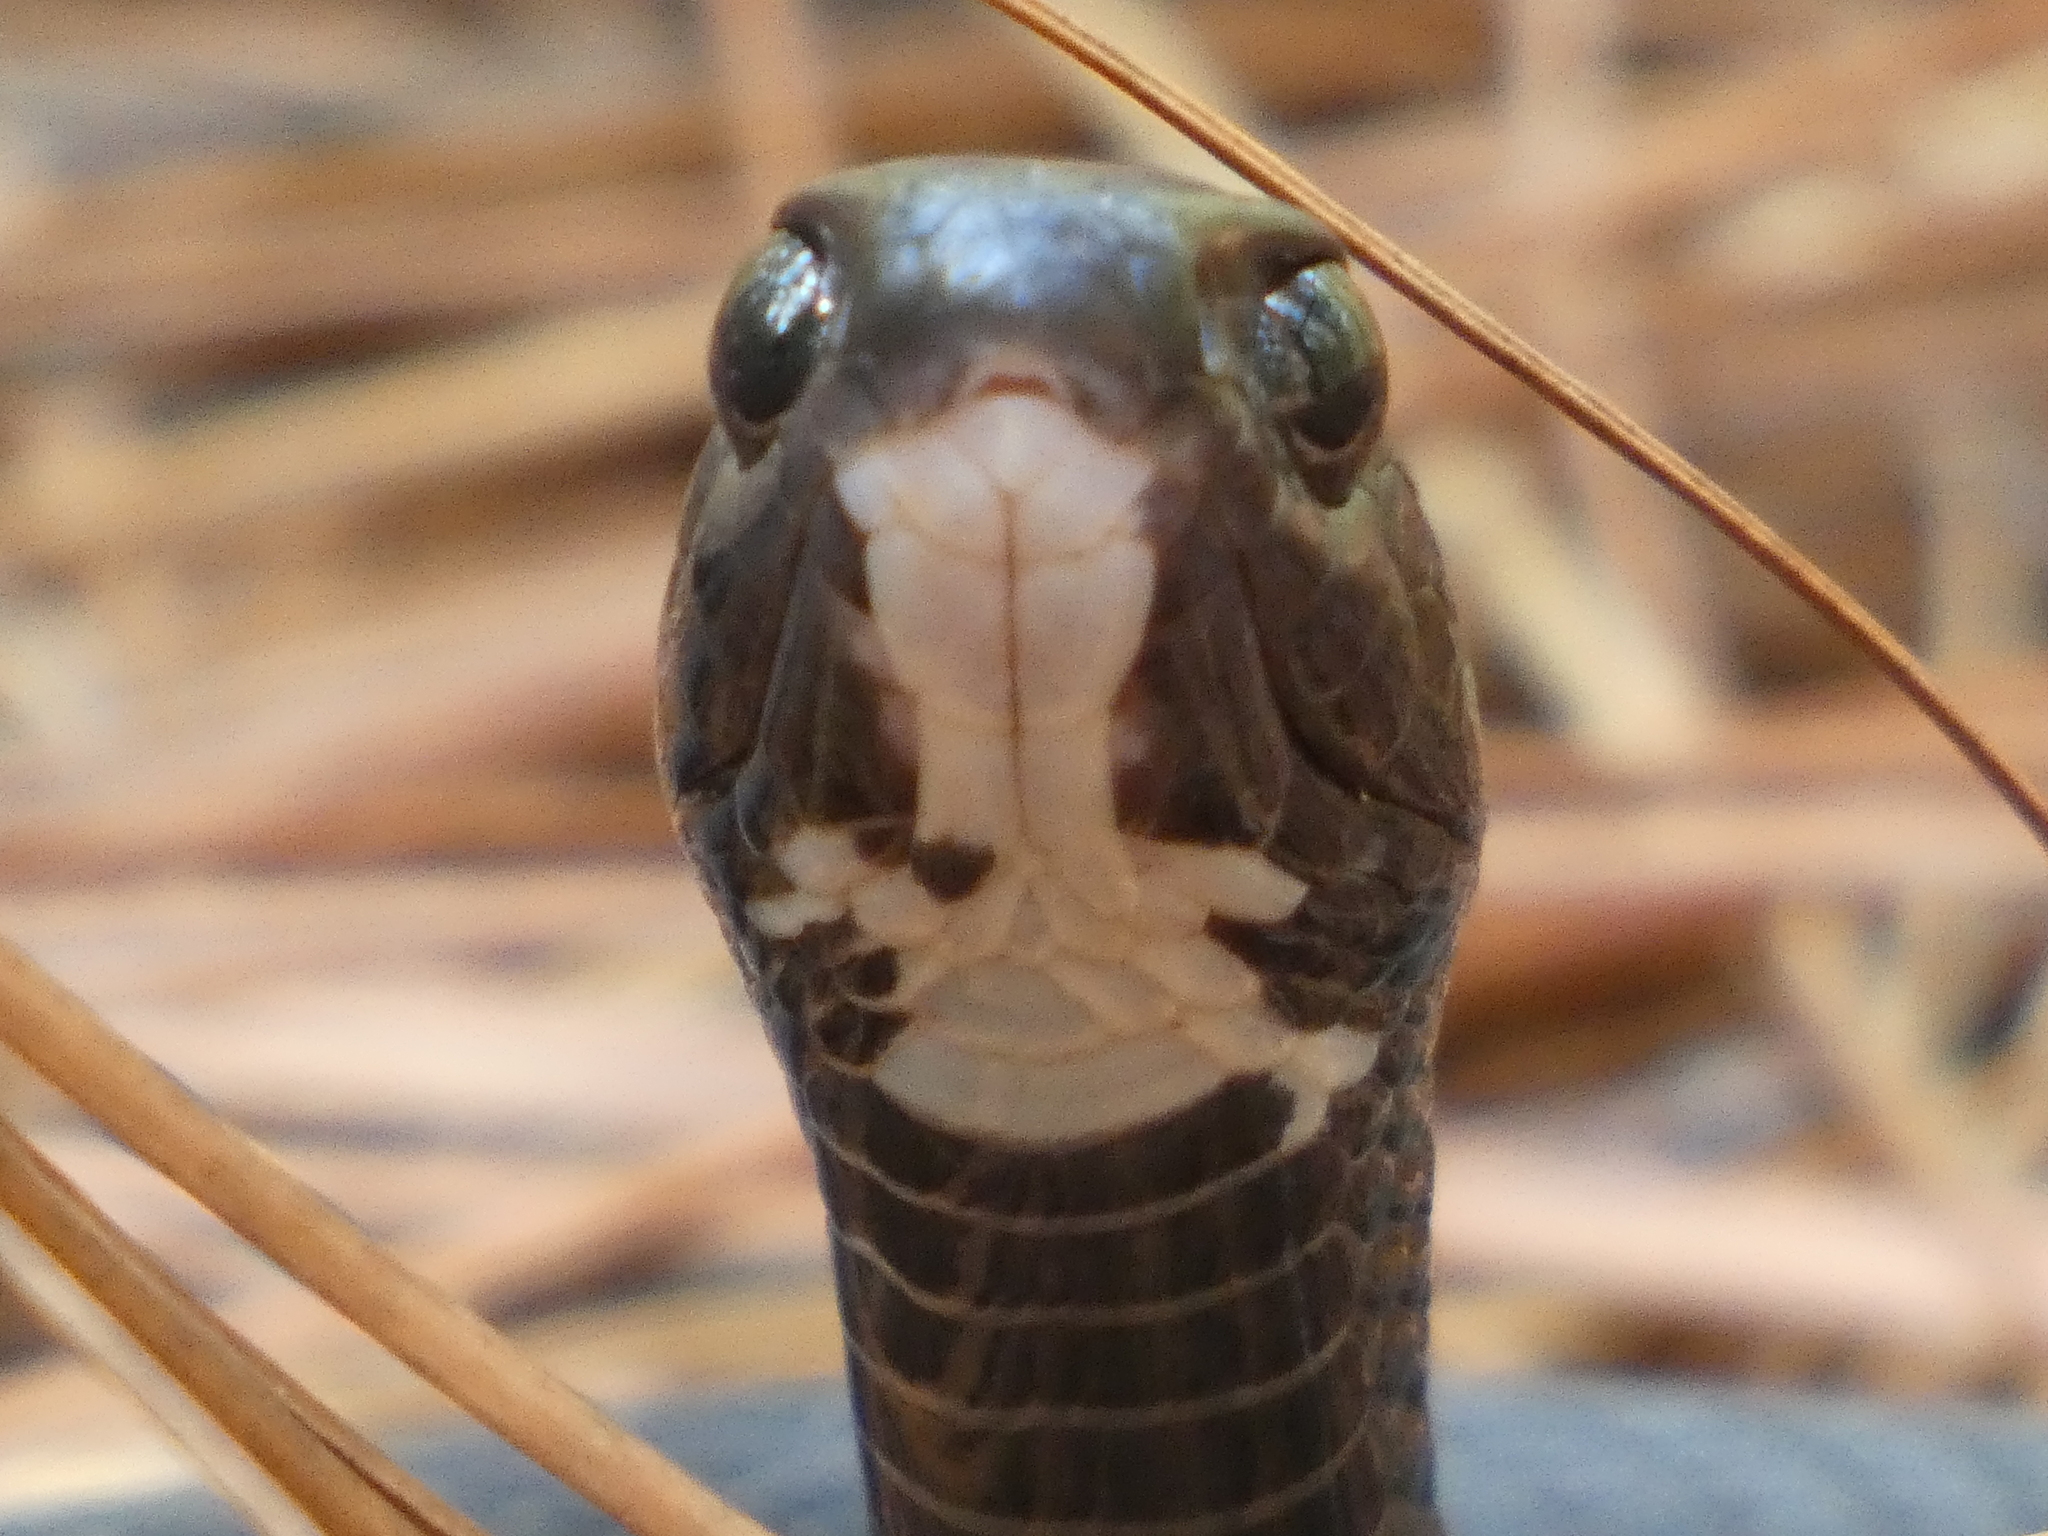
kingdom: Animalia
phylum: Chordata
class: Squamata
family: Colubridae
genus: Coluber
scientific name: Coluber constrictor
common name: Eastern racer
